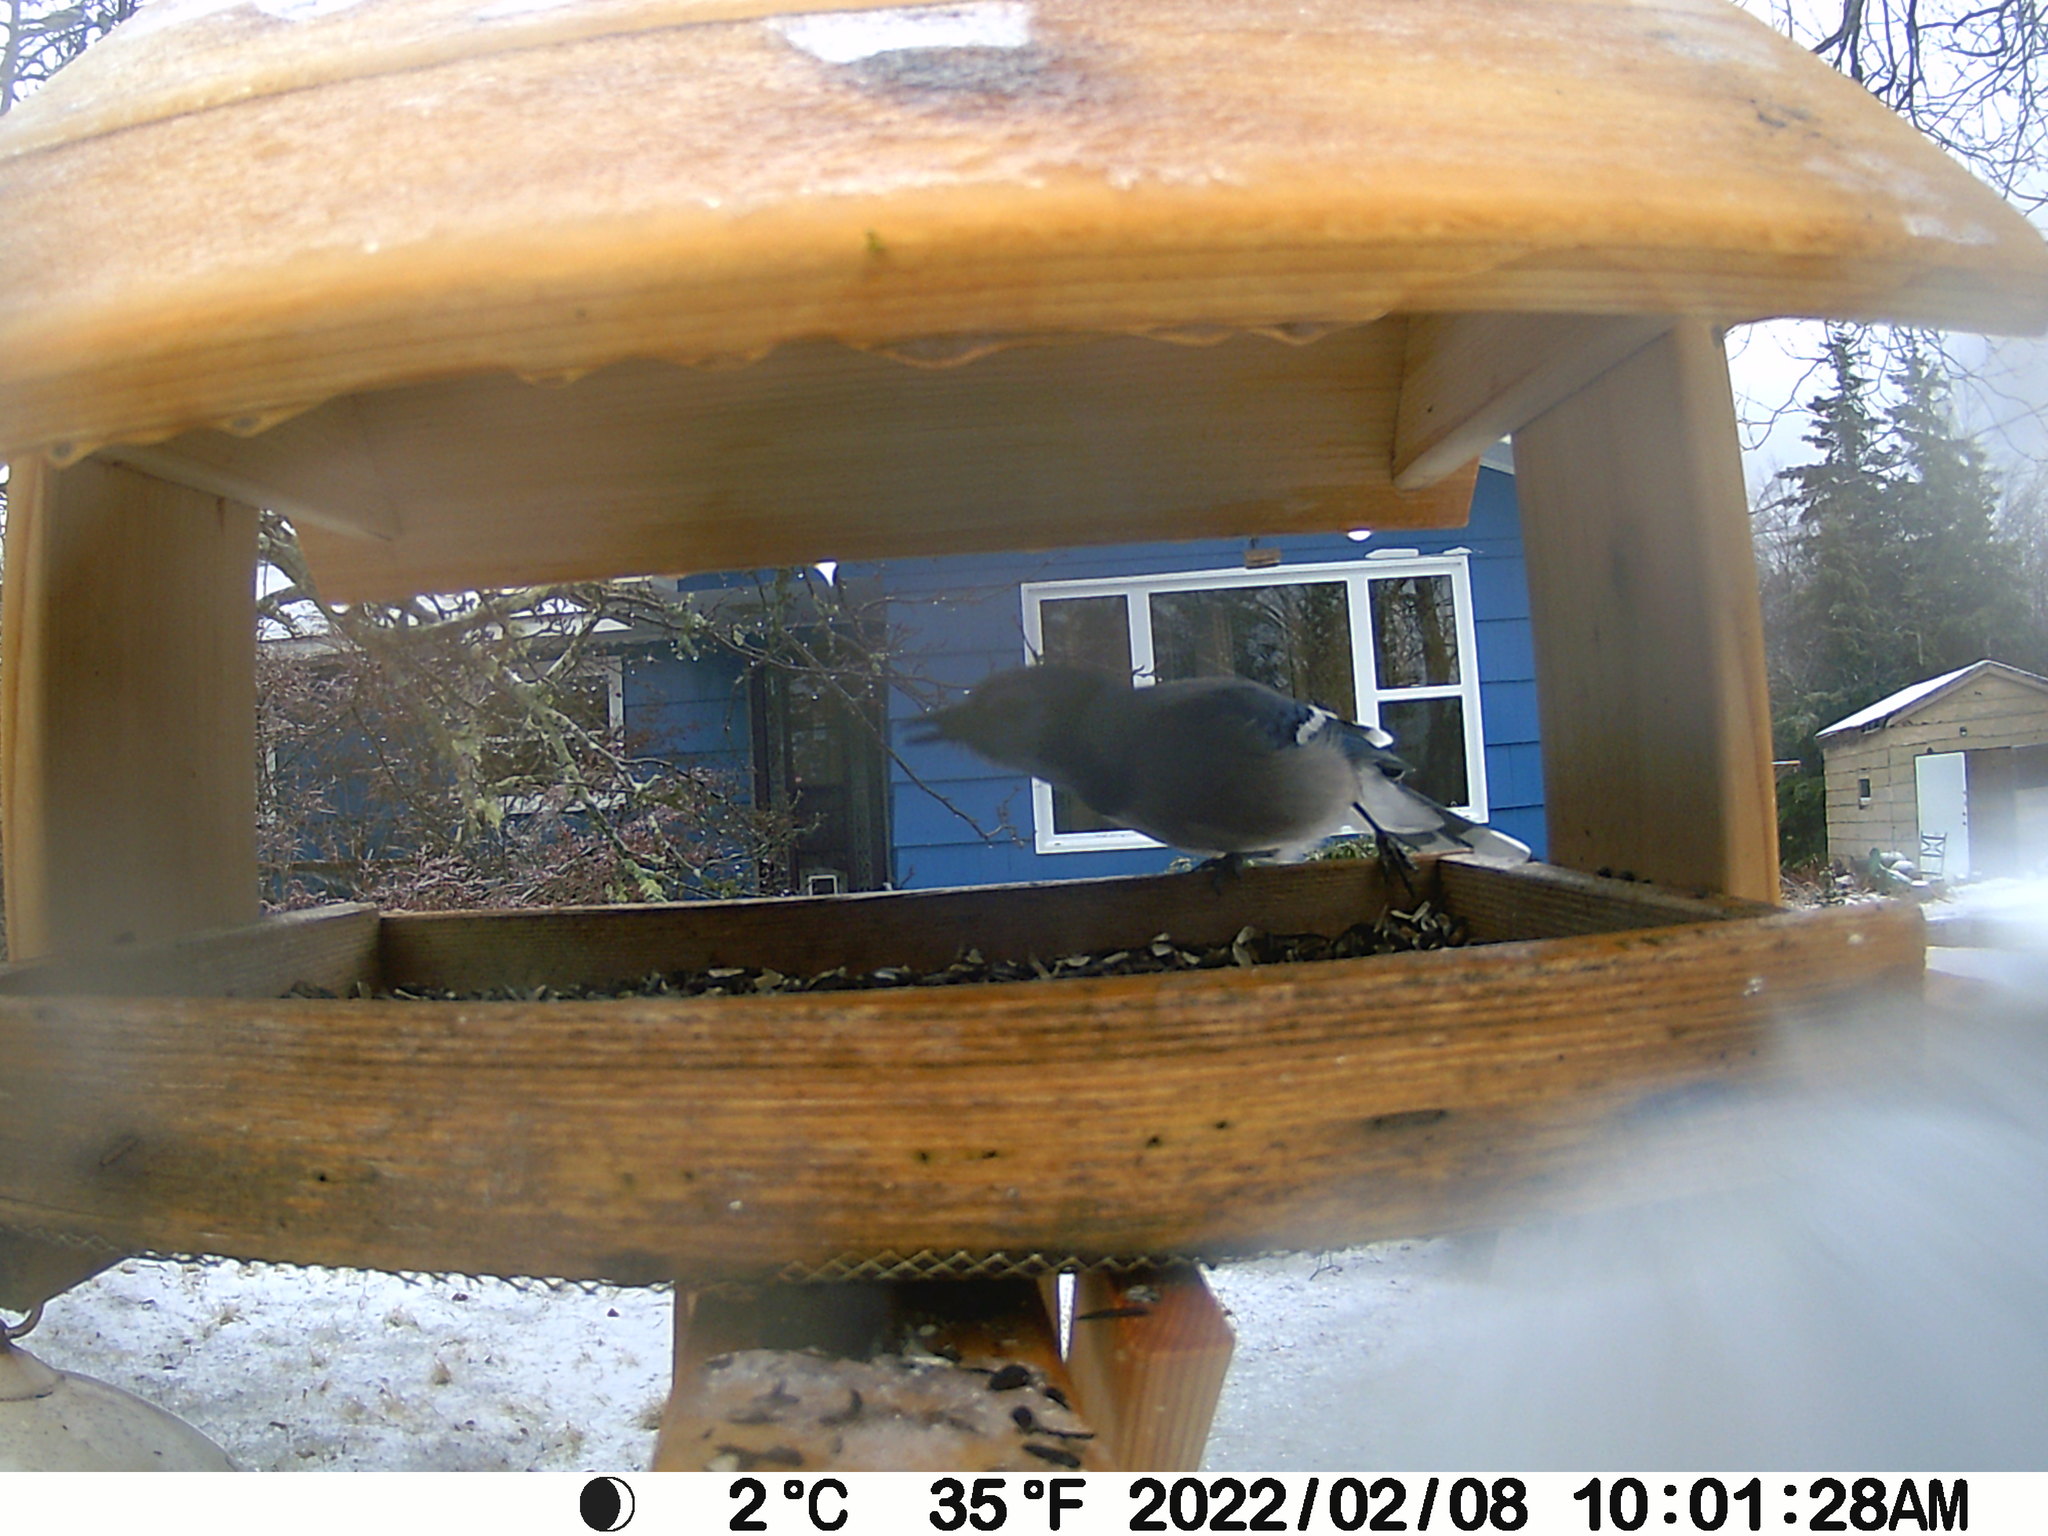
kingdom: Animalia
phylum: Chordata
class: Aves
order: Passeriformes
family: Corvidae
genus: Cyanocitta
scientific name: Cyanocitta cristata
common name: Blue jay
